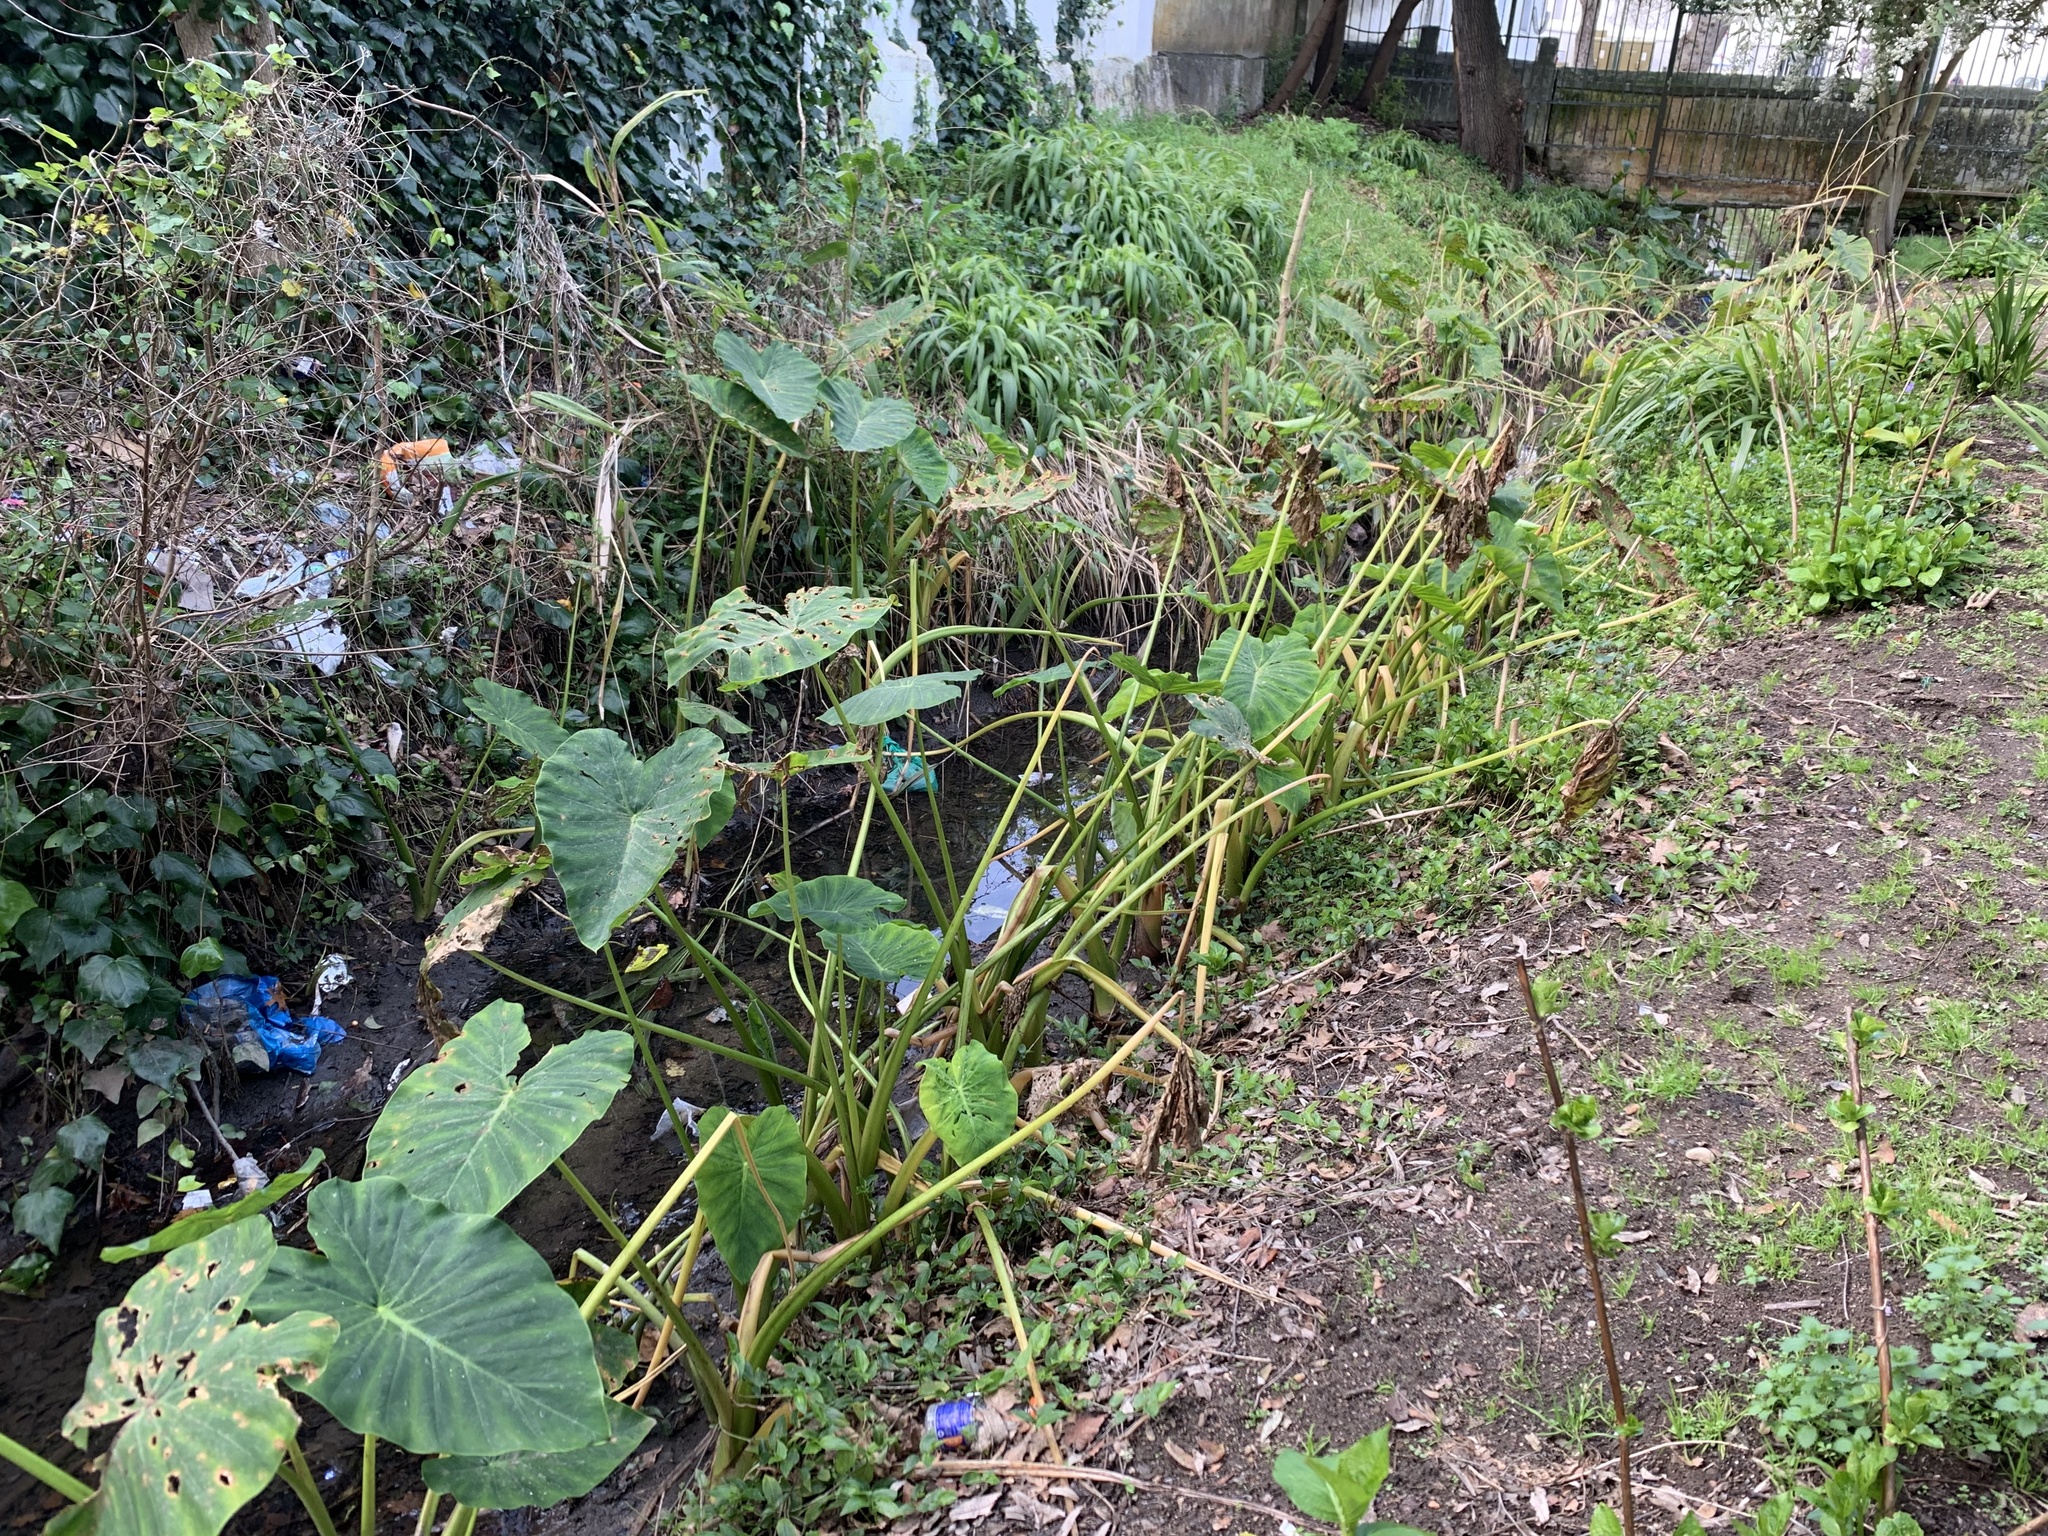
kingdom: Plantae
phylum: Tracheophyta
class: Liliopsida
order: Alismatales
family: Araceae
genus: Colocasia
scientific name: Colocasia esculenta
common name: Taro
